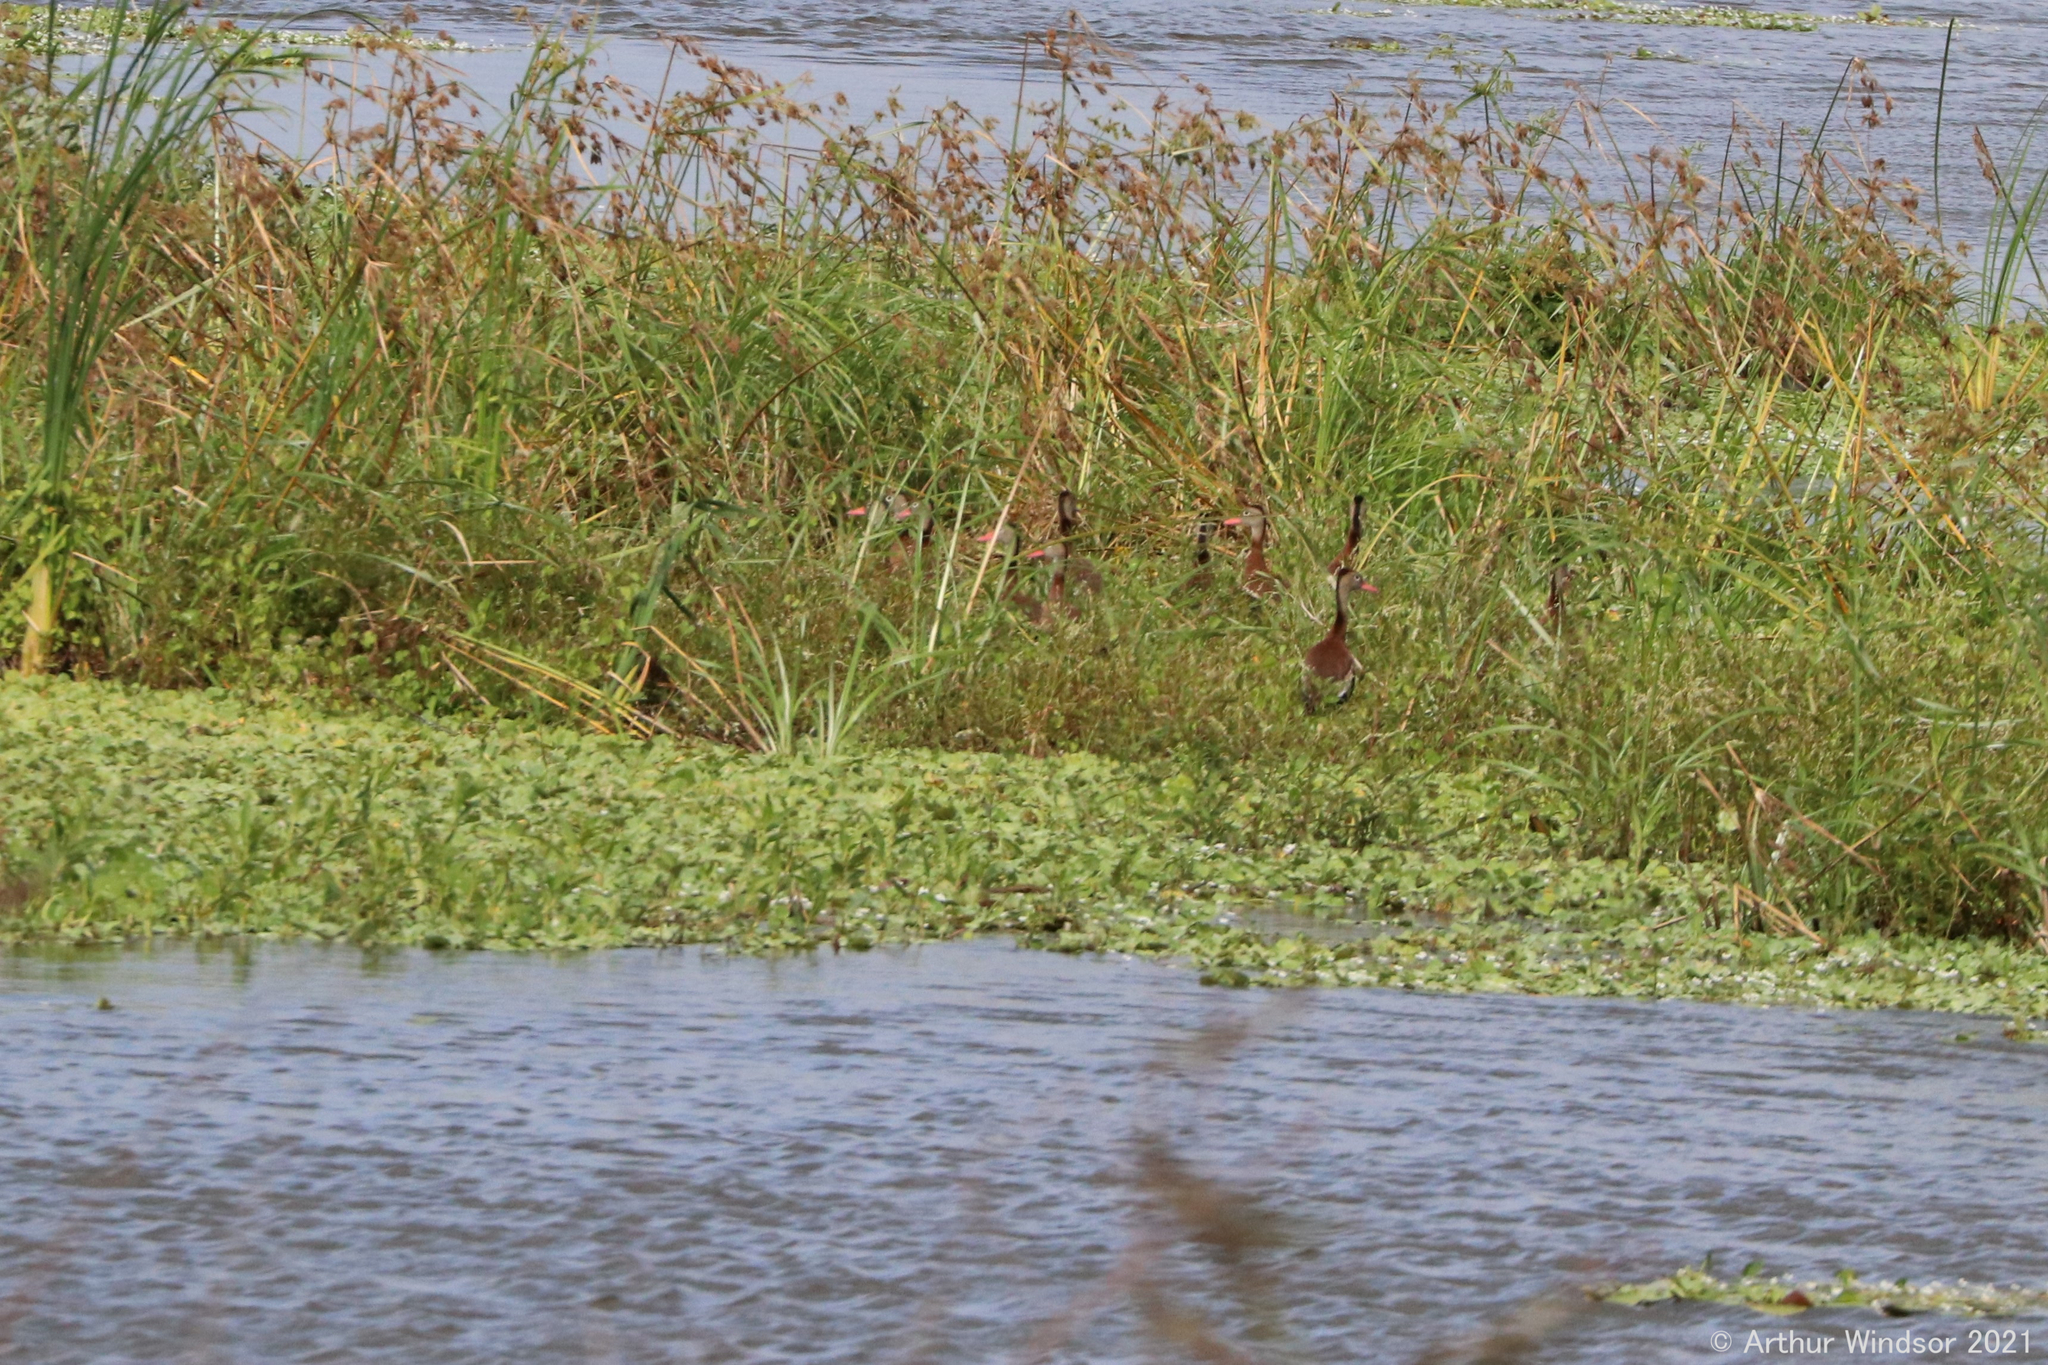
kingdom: Animalia
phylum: Chordata
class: Aves
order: Anseriformes
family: Anatidae
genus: Dendrocygna
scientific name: Dendrocygna autumnalis
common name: Black-bellied whistling duck
